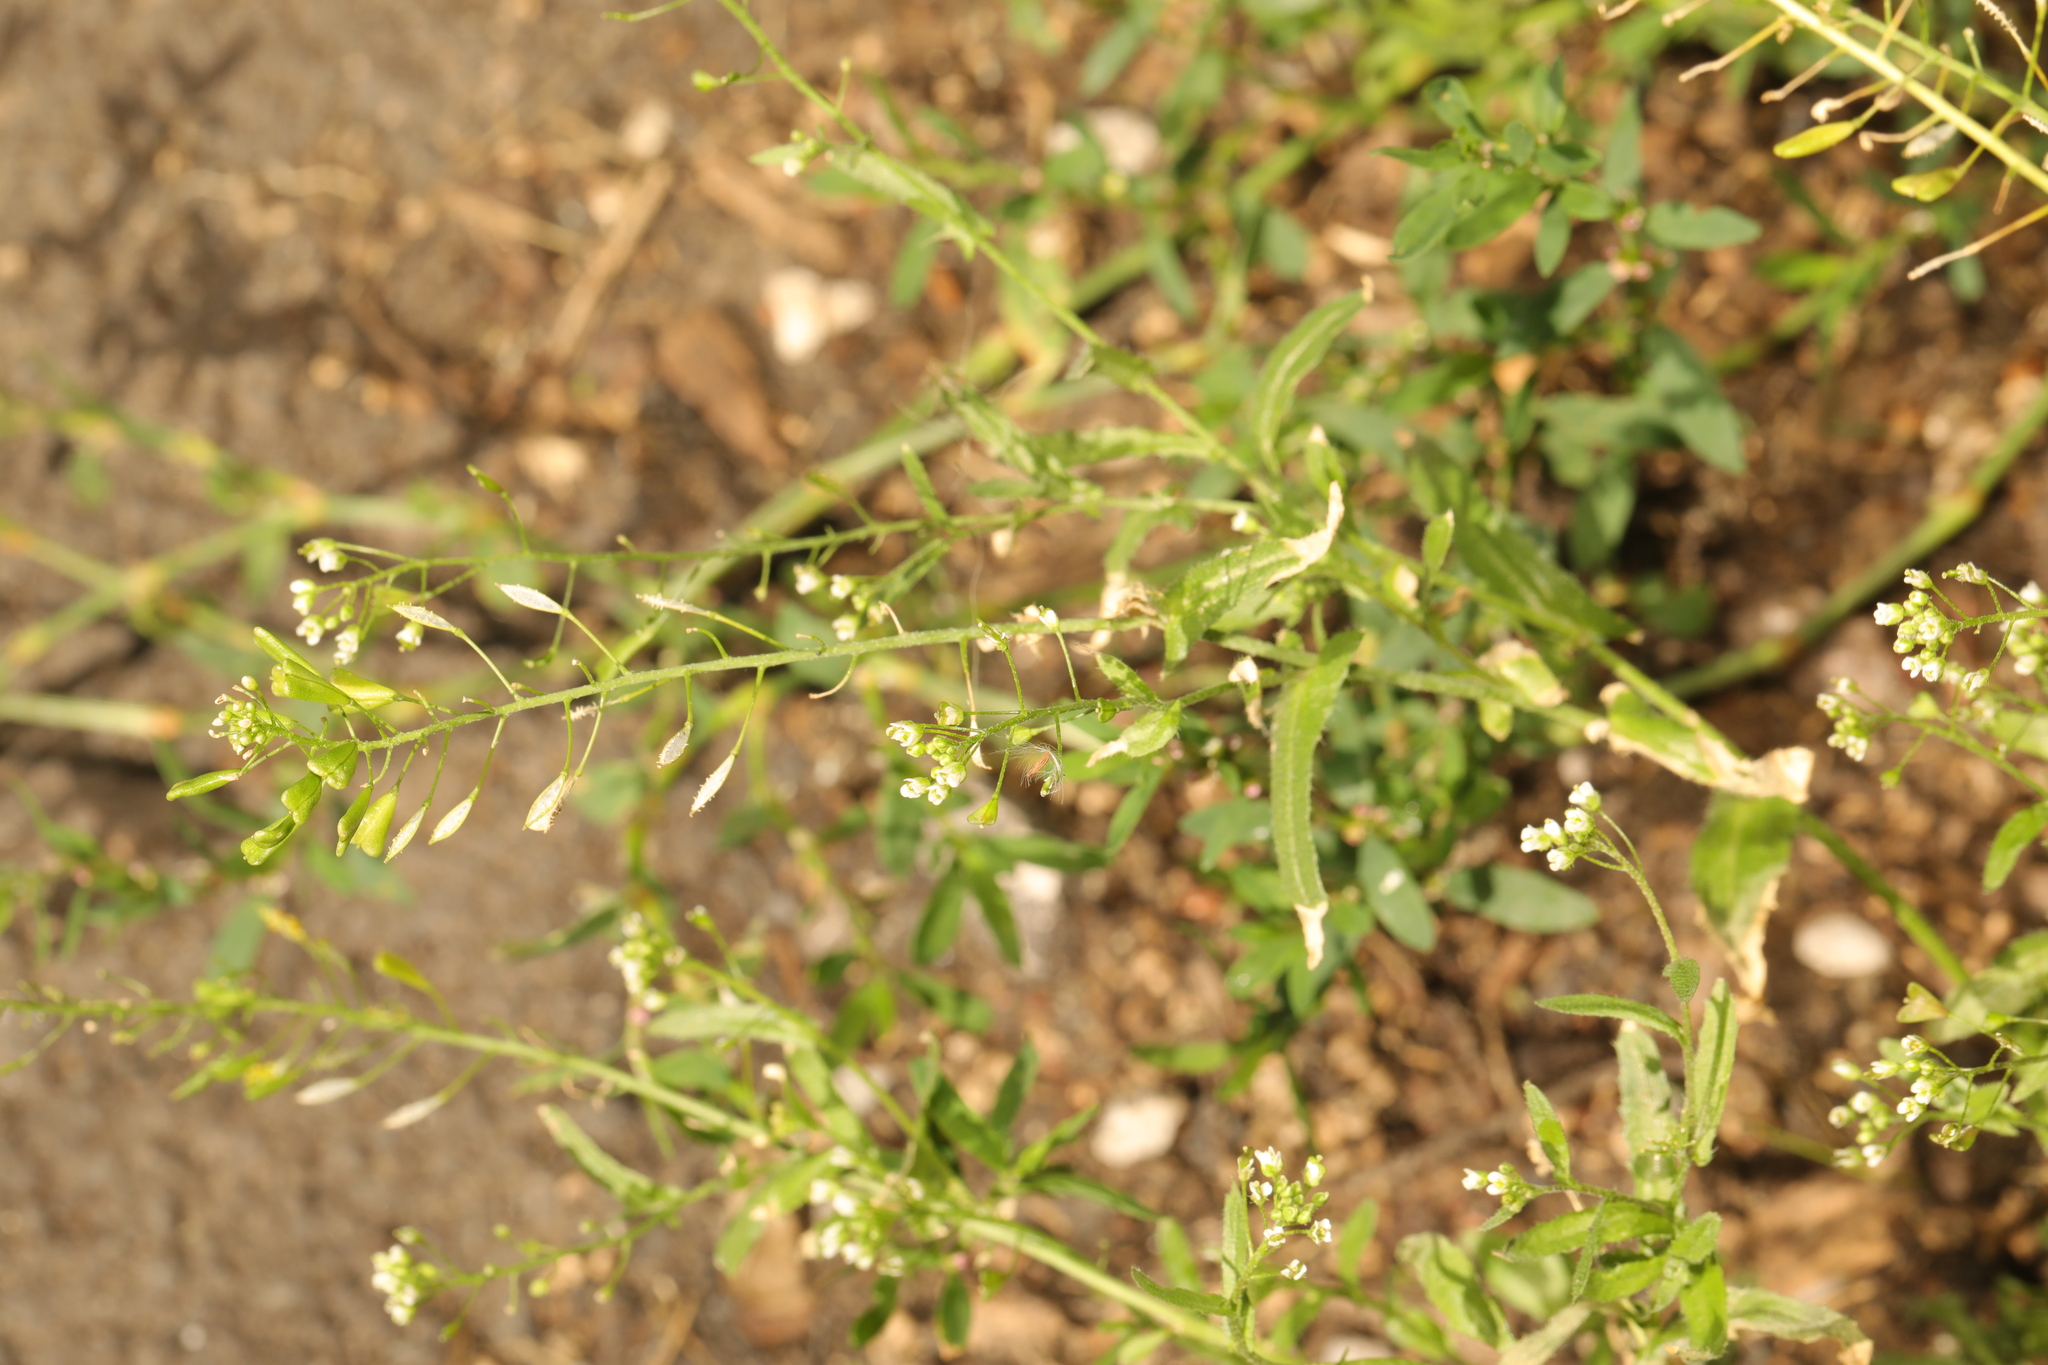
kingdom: Plantae
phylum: Tracheophyta
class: Magnoliopsida
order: Brassicales
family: Brassicaceae
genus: Capsella
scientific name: Capsella bursa-pastoris
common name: Shepherd's purse
